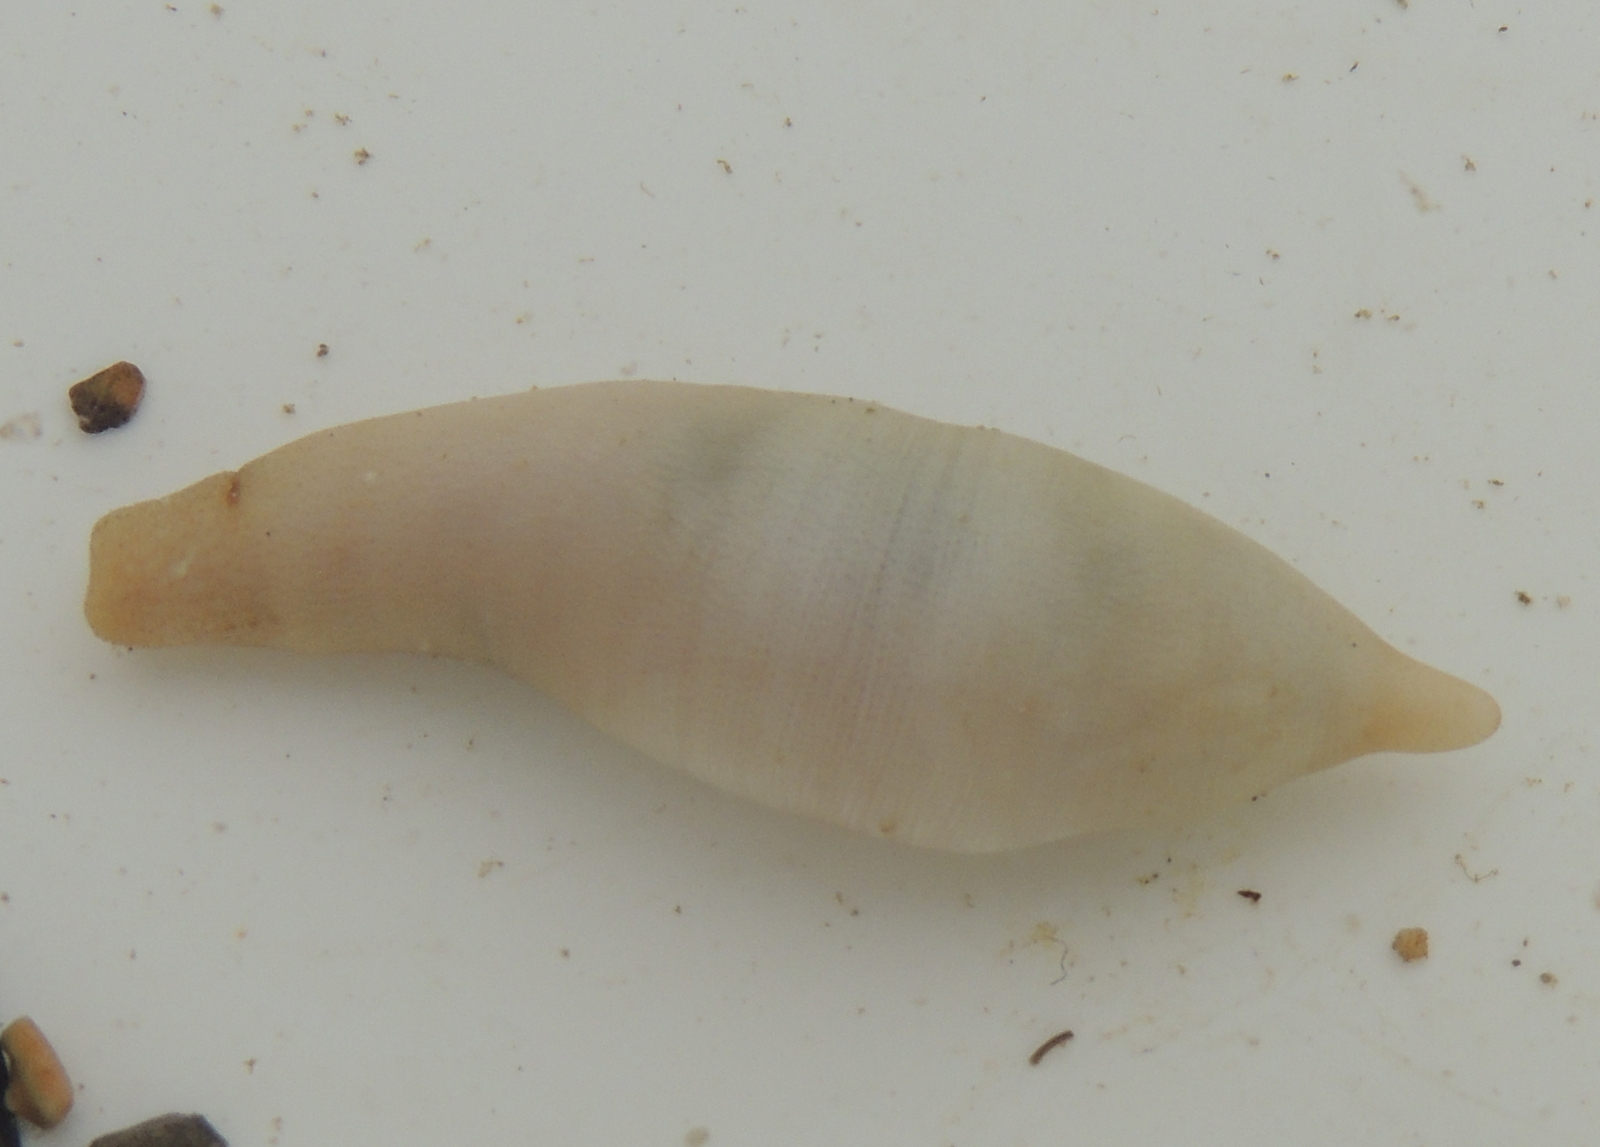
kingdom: Animalia
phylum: Sipuncula
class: Phascolosomatidea
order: Phascolosomatiformes
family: Phascolosomatidae
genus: Phascolosoma
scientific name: Phascolosoma agassizii
